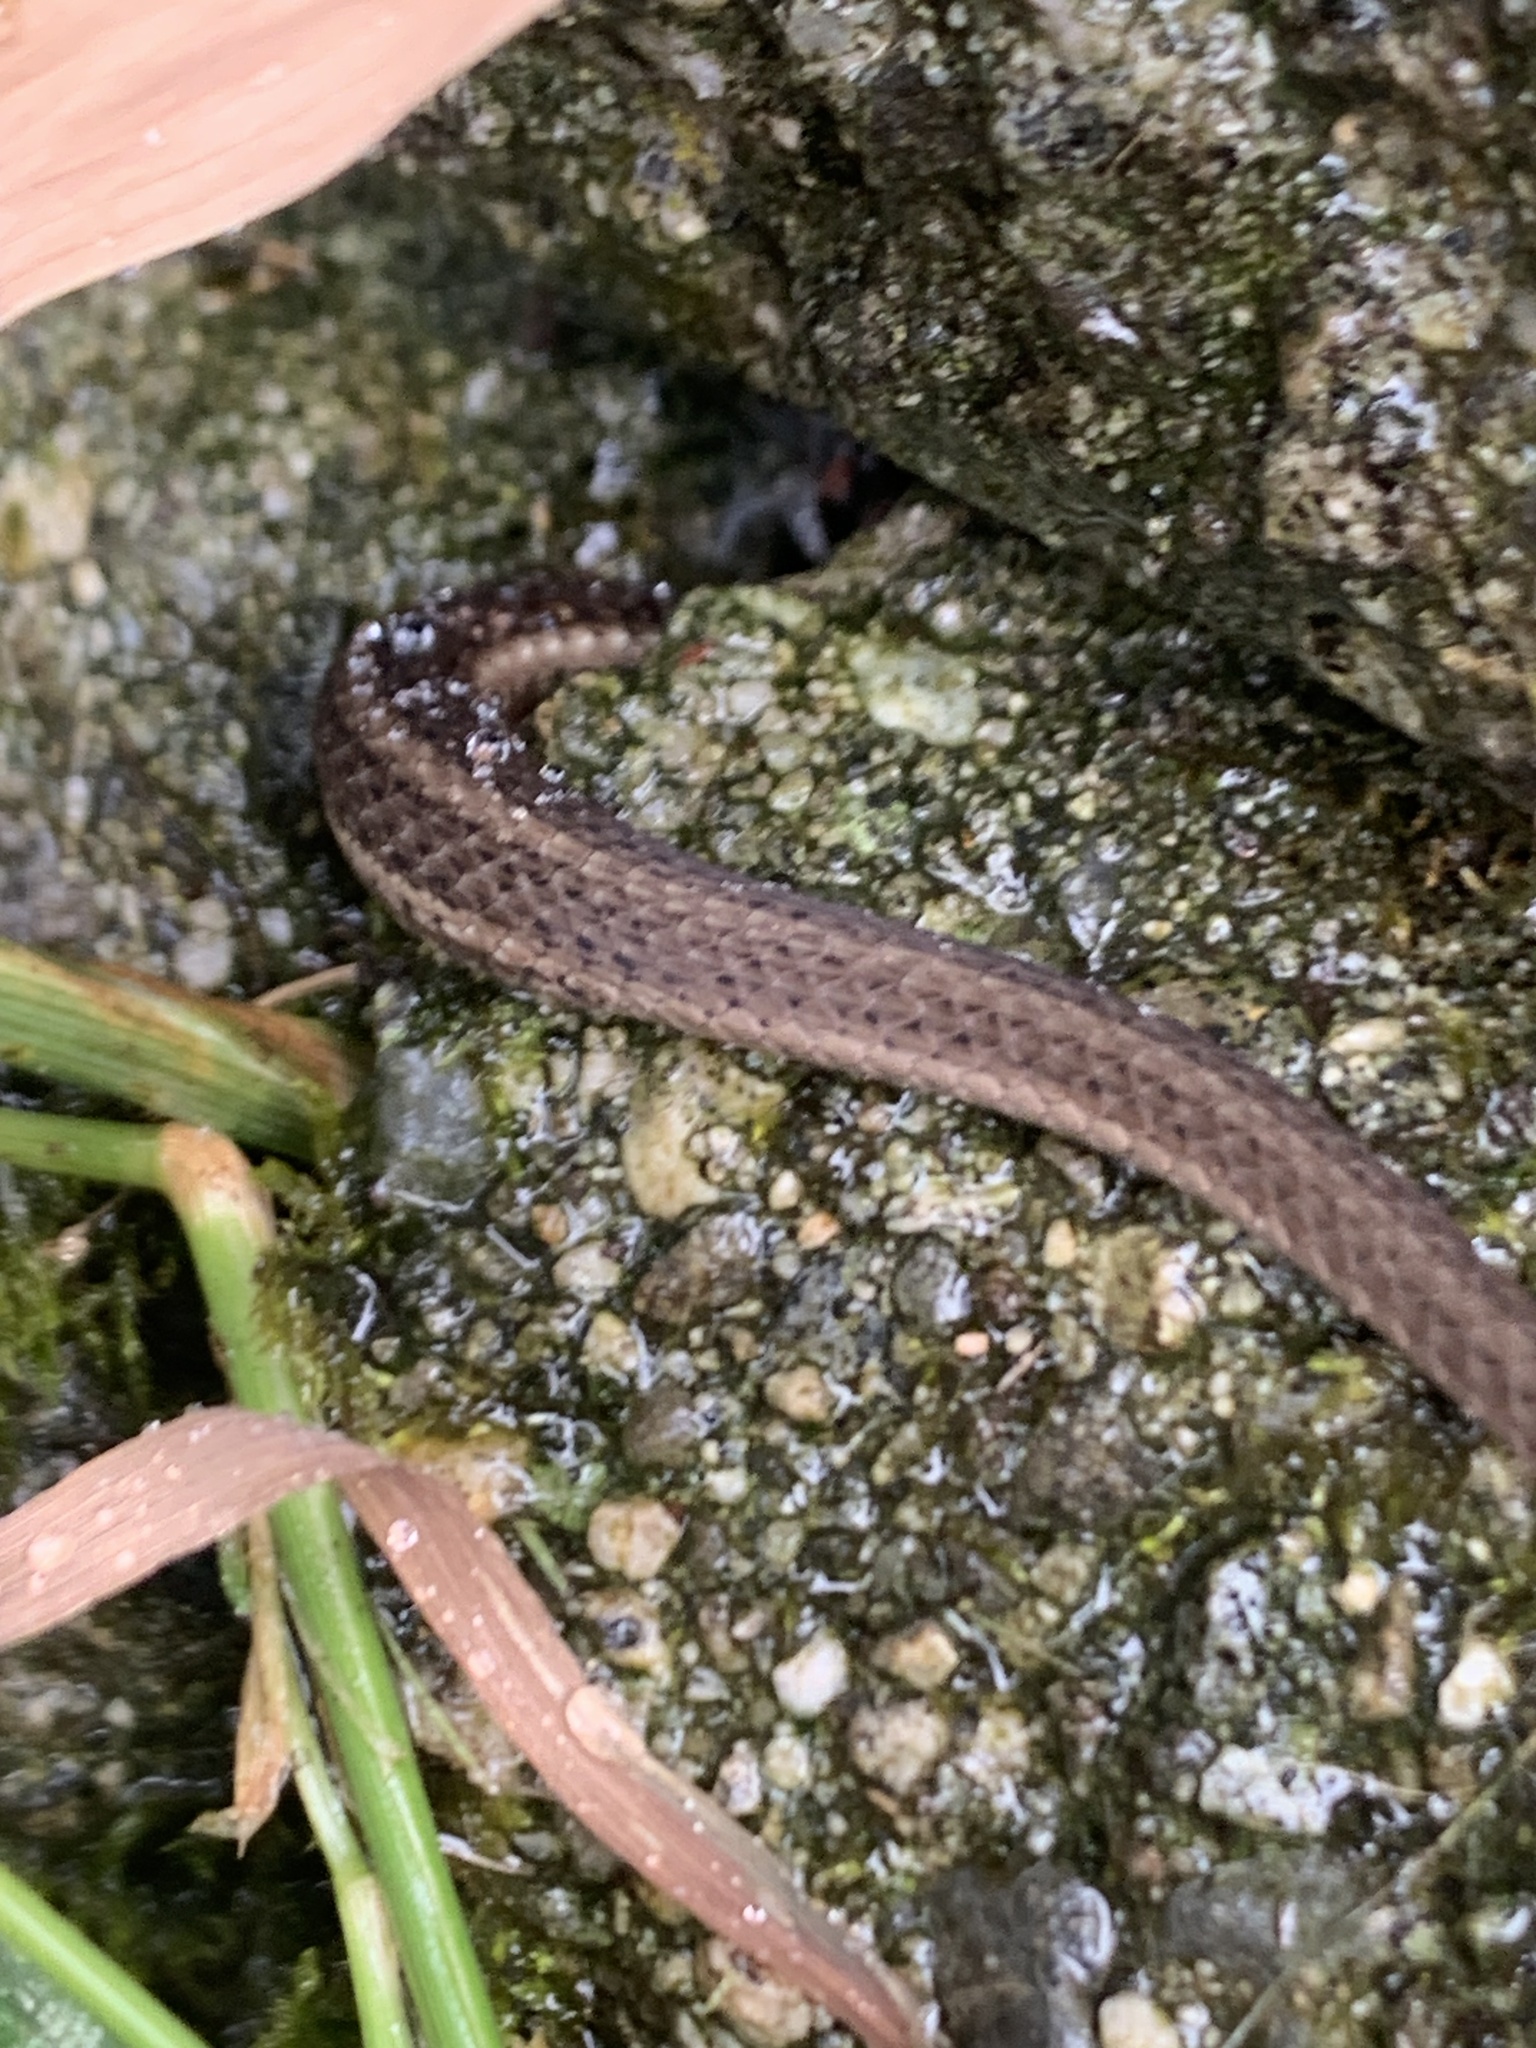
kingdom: Animalia
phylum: Chordata
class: Squamata
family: Colubridae
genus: Thamnophis
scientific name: Thamnophis ordinoides
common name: Northwestern garter snake
